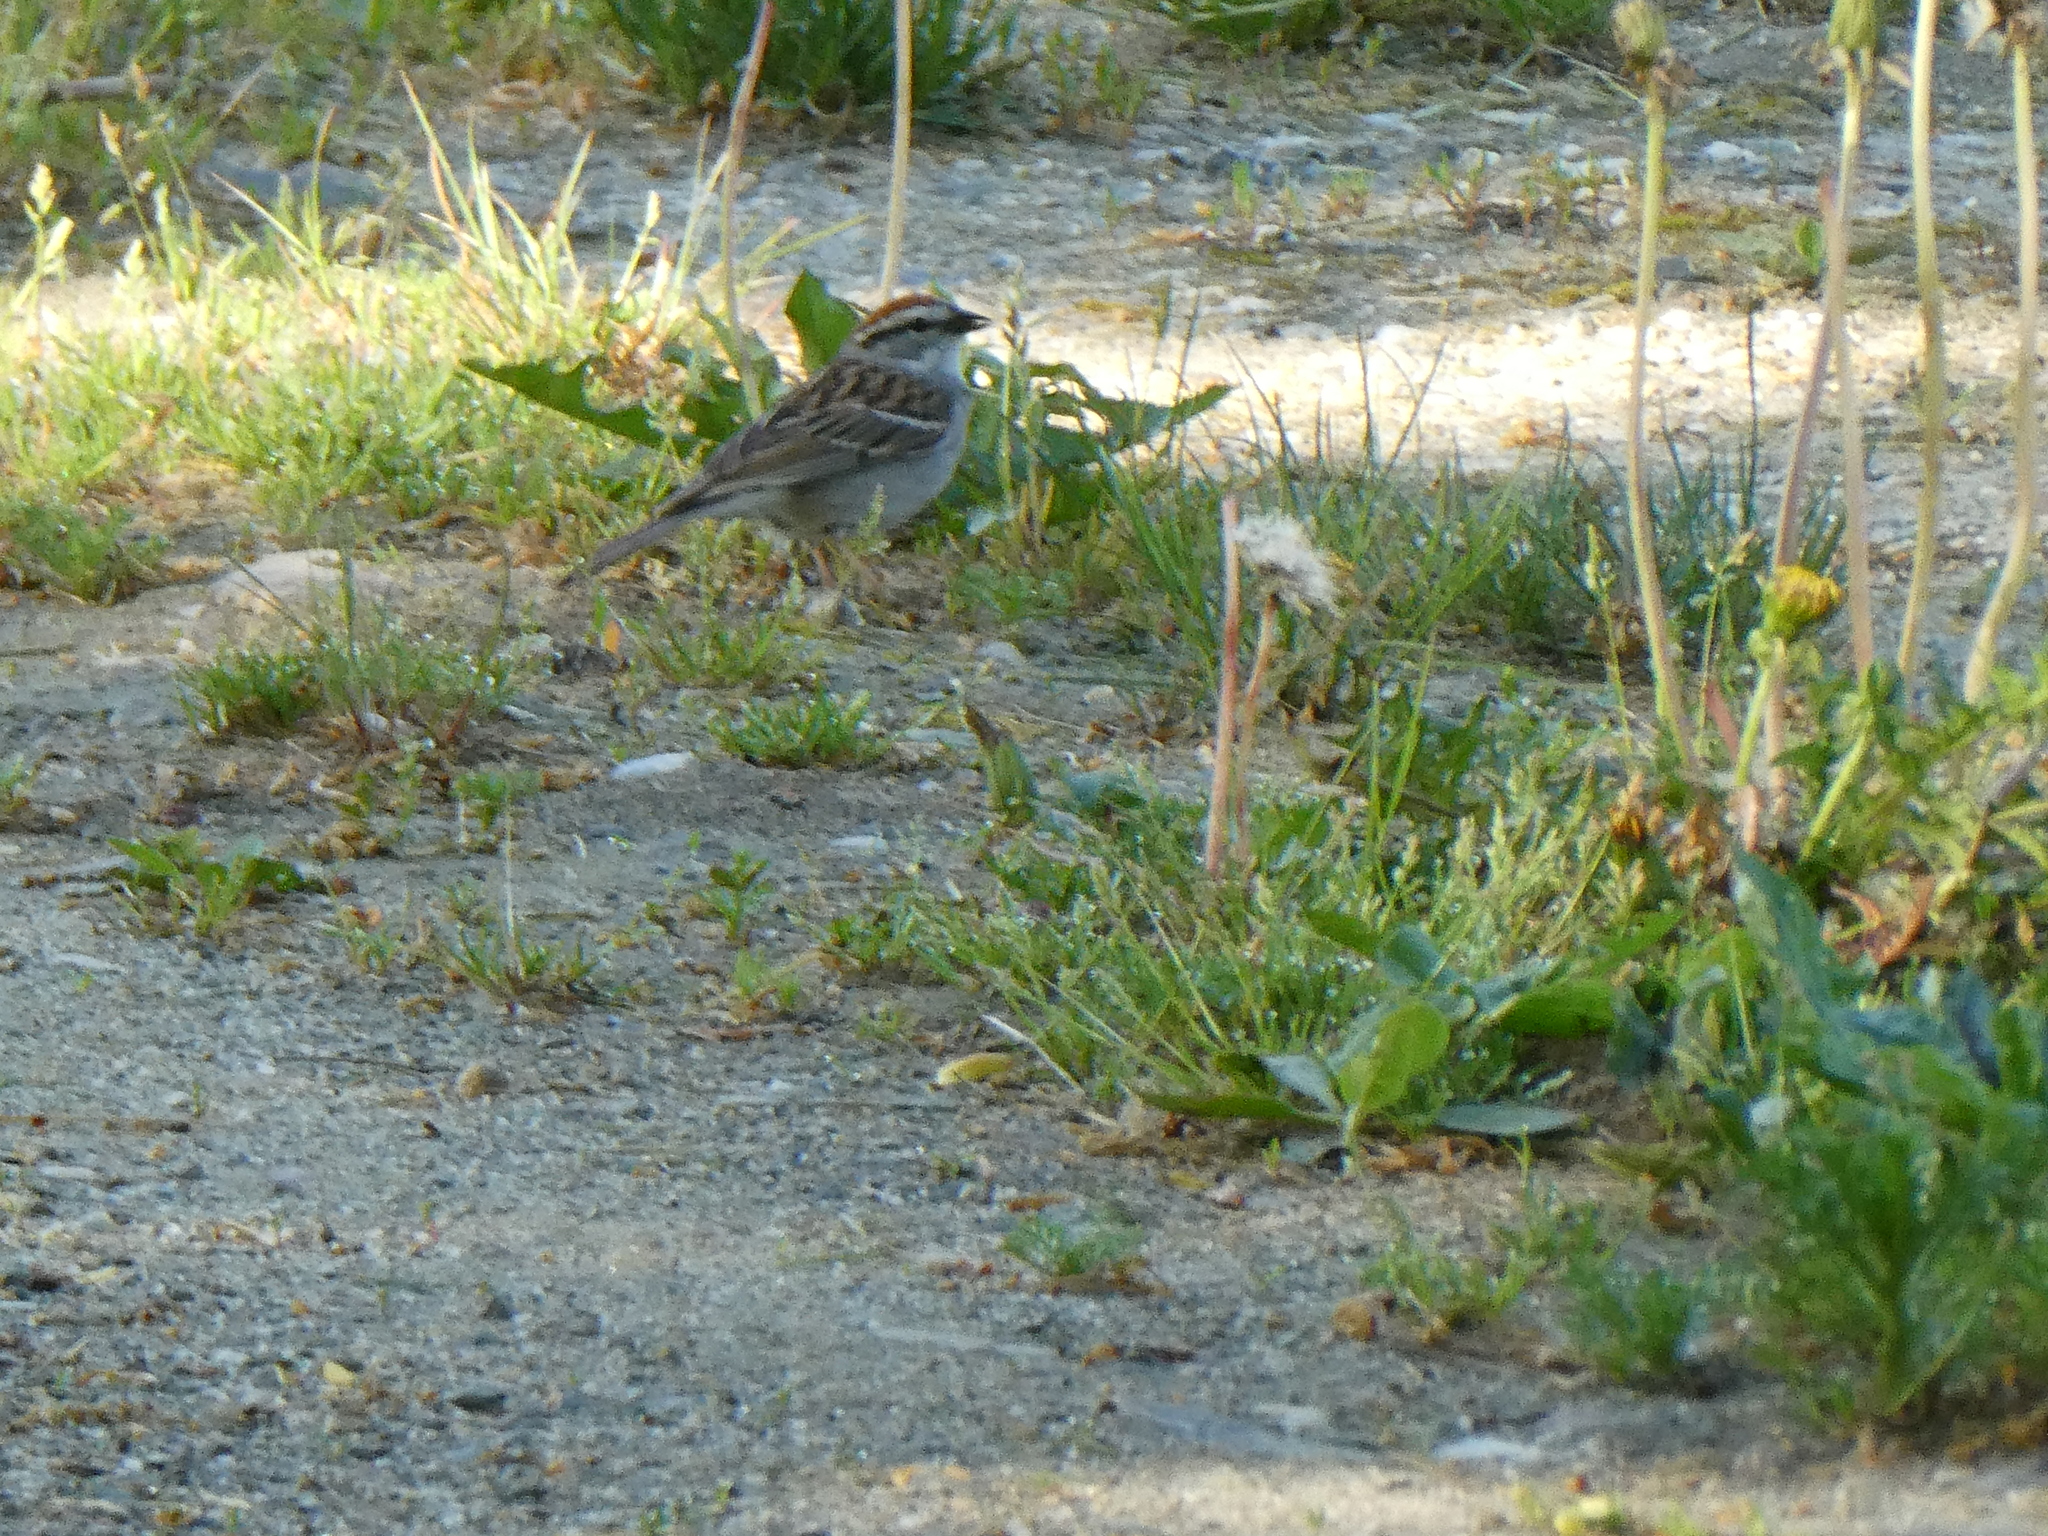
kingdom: Animalia
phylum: Chordata
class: Aves
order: Passeriformes
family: Passerellidae
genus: Spizella
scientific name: Spizella passerina
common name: Chipping sparrow
